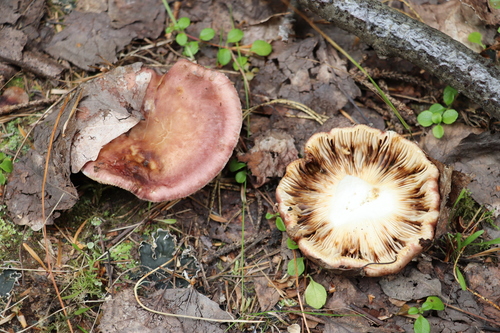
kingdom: Fungi
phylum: Basidiomycota
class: Agaricomycetes
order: Russulales
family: Russulaceae
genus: Russula
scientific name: Russula vesca
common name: Bare-toothed russula
